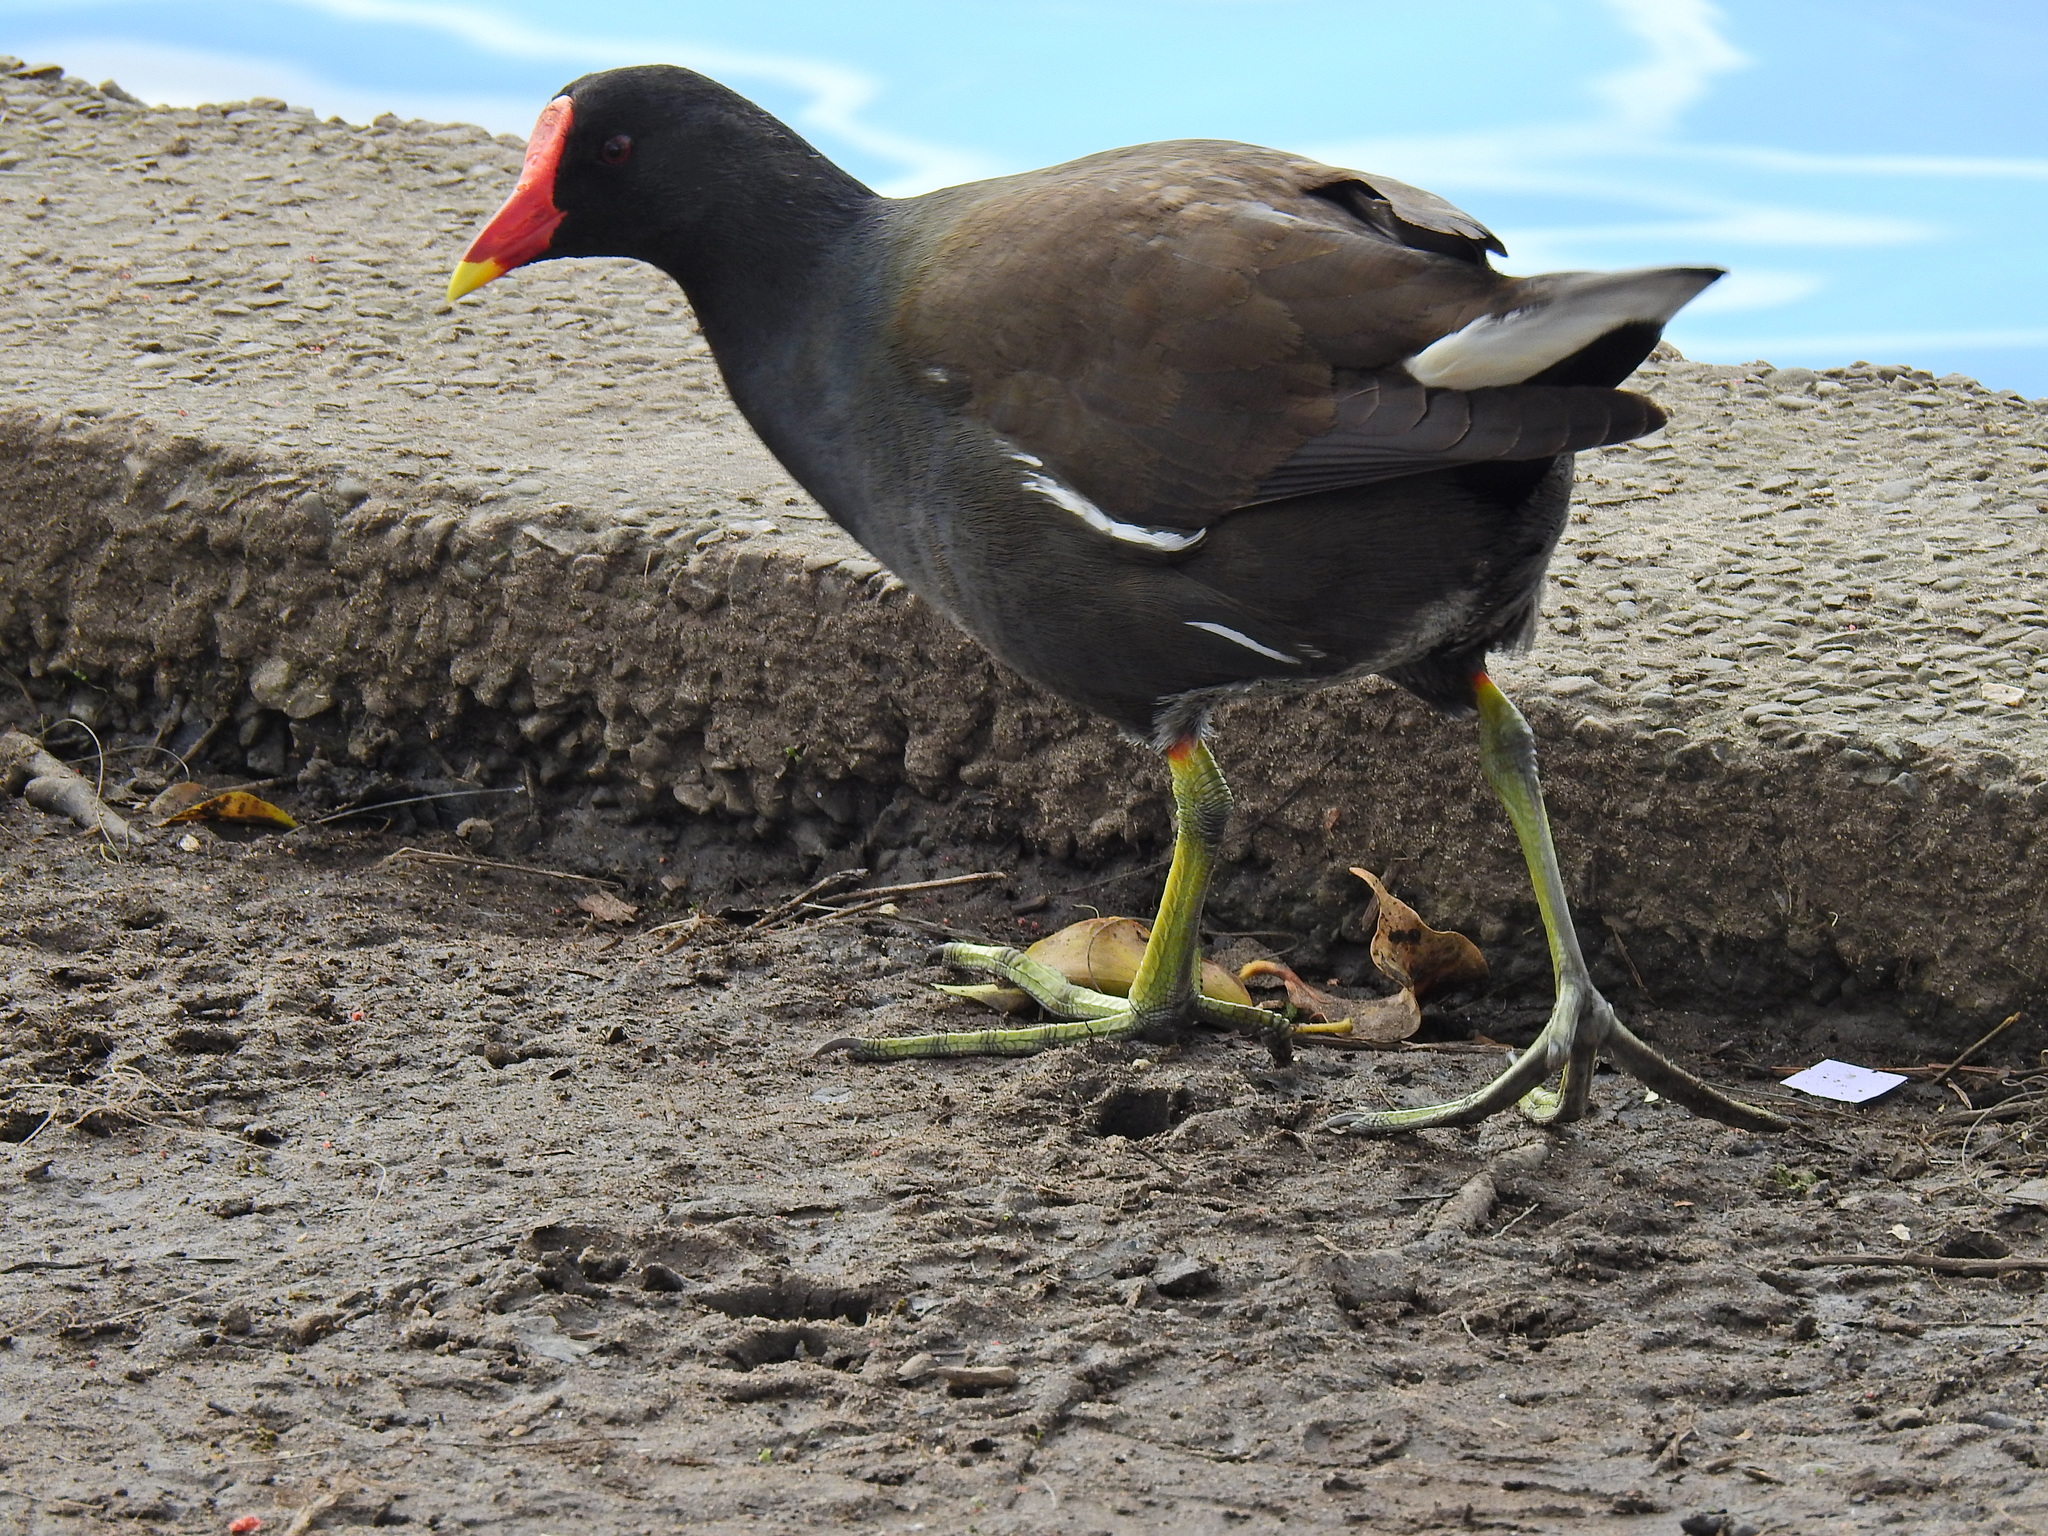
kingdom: Animalia
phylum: Chordata
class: Aves
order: Gruiformes
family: Rallidae
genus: Gallinula
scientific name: Gallinula chloropus
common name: Common moorhen
